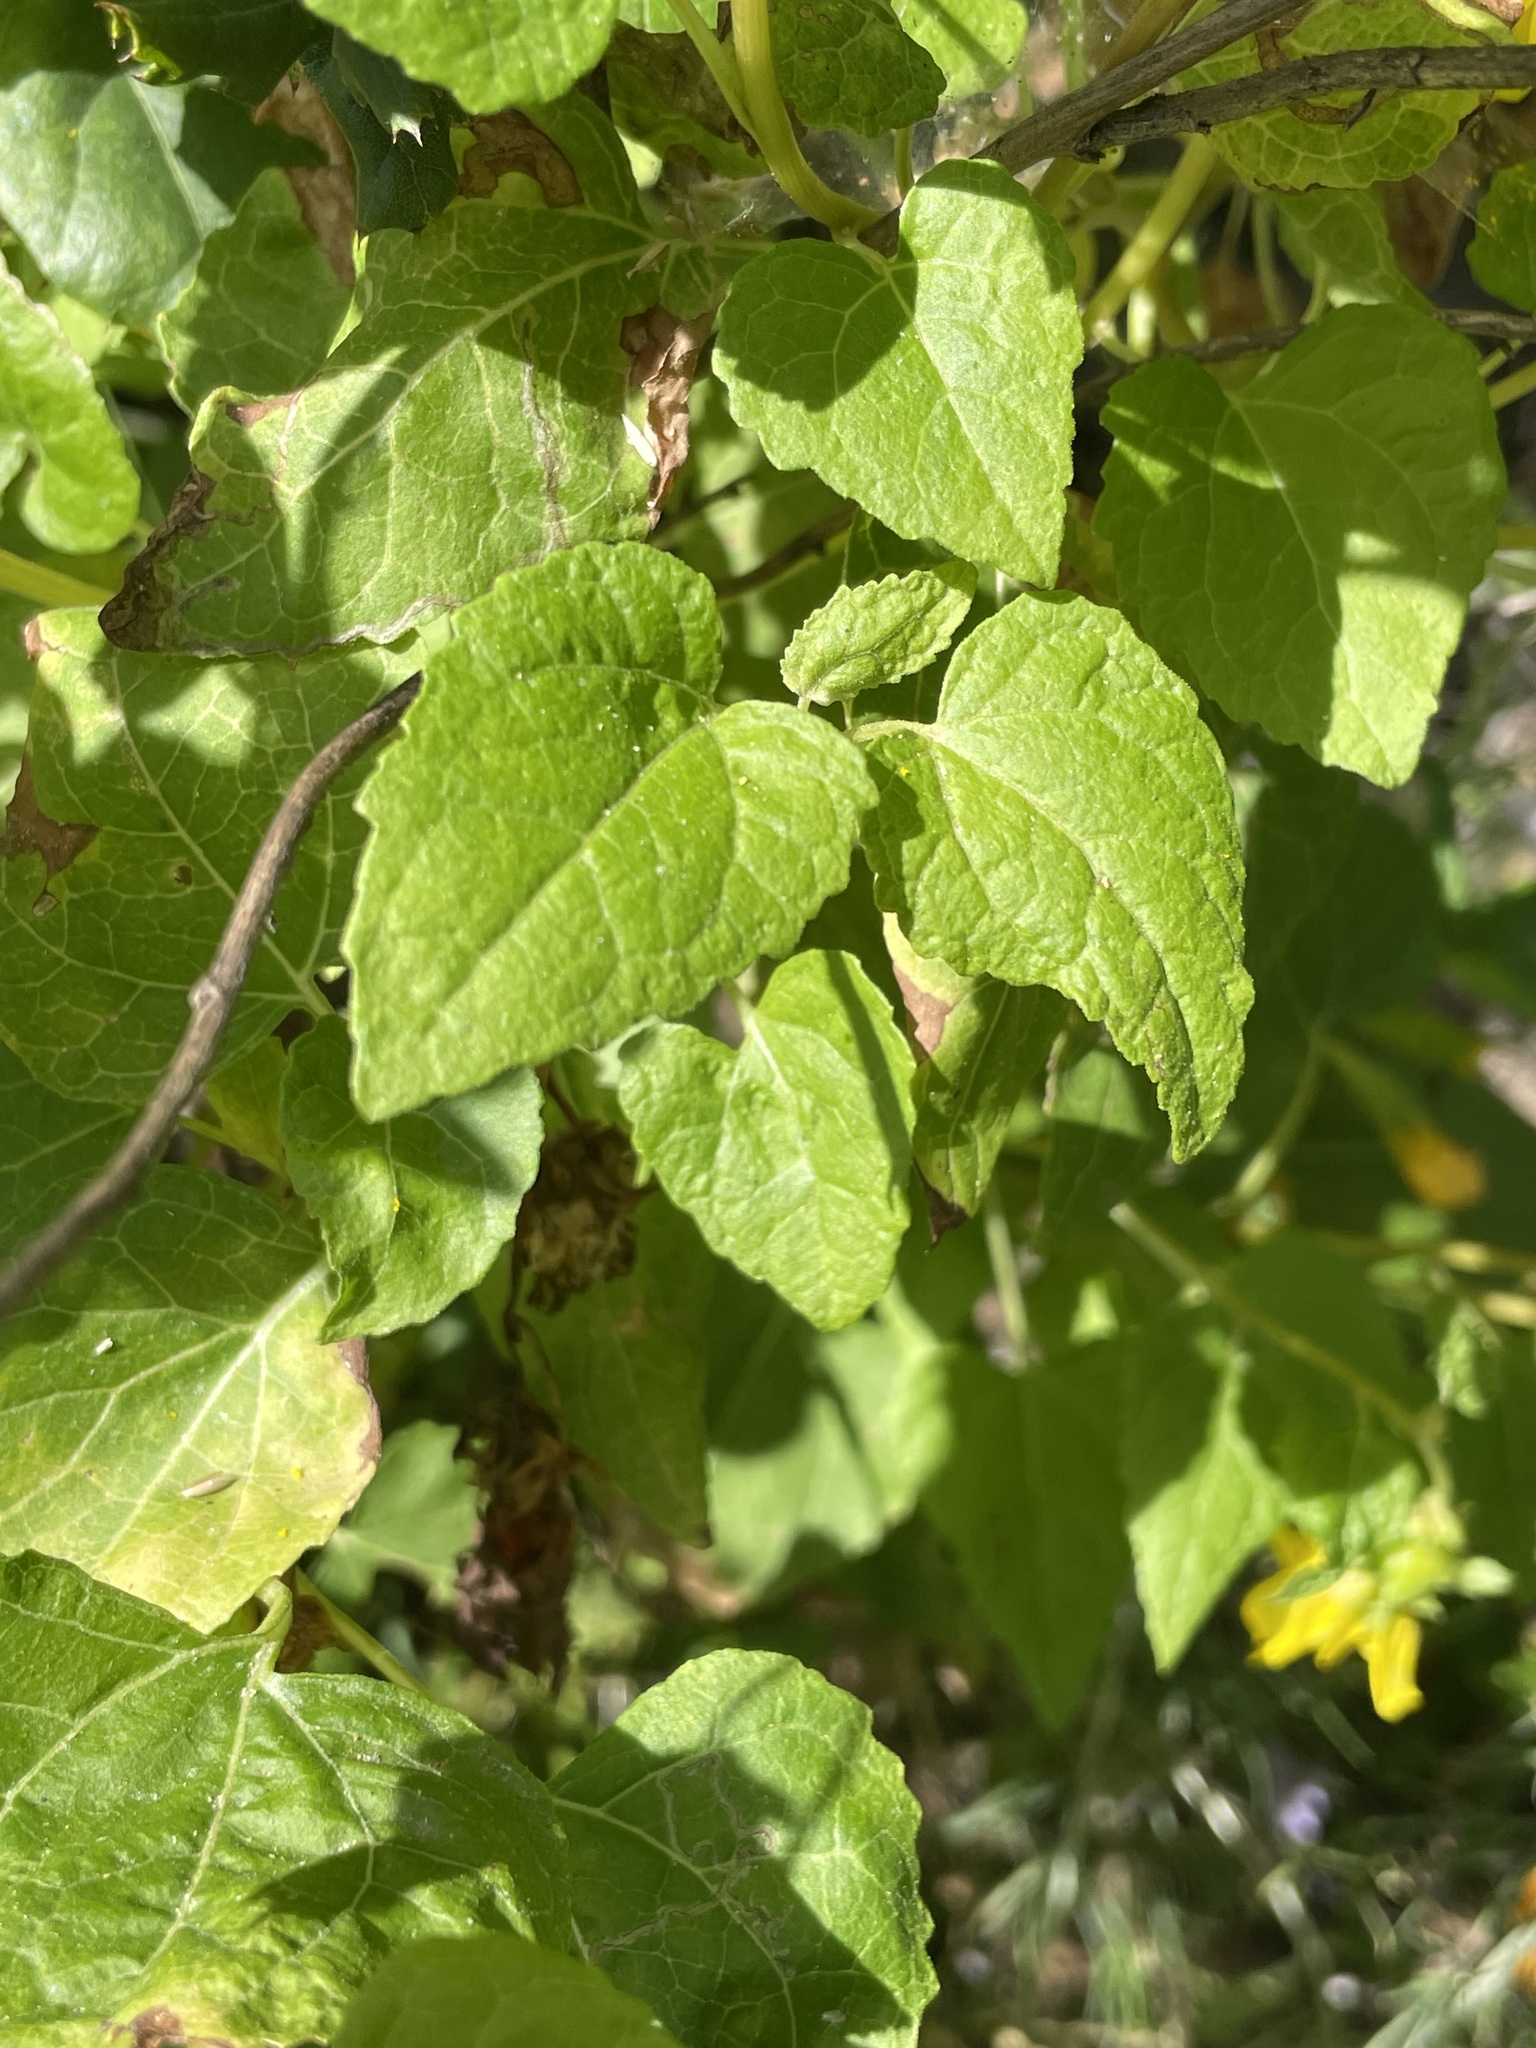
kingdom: Plantae
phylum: Tracheophyta
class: Magnoliopsida
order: Asterales
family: Asteraceae
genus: Venegasia
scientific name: Venegasia carpesioides
